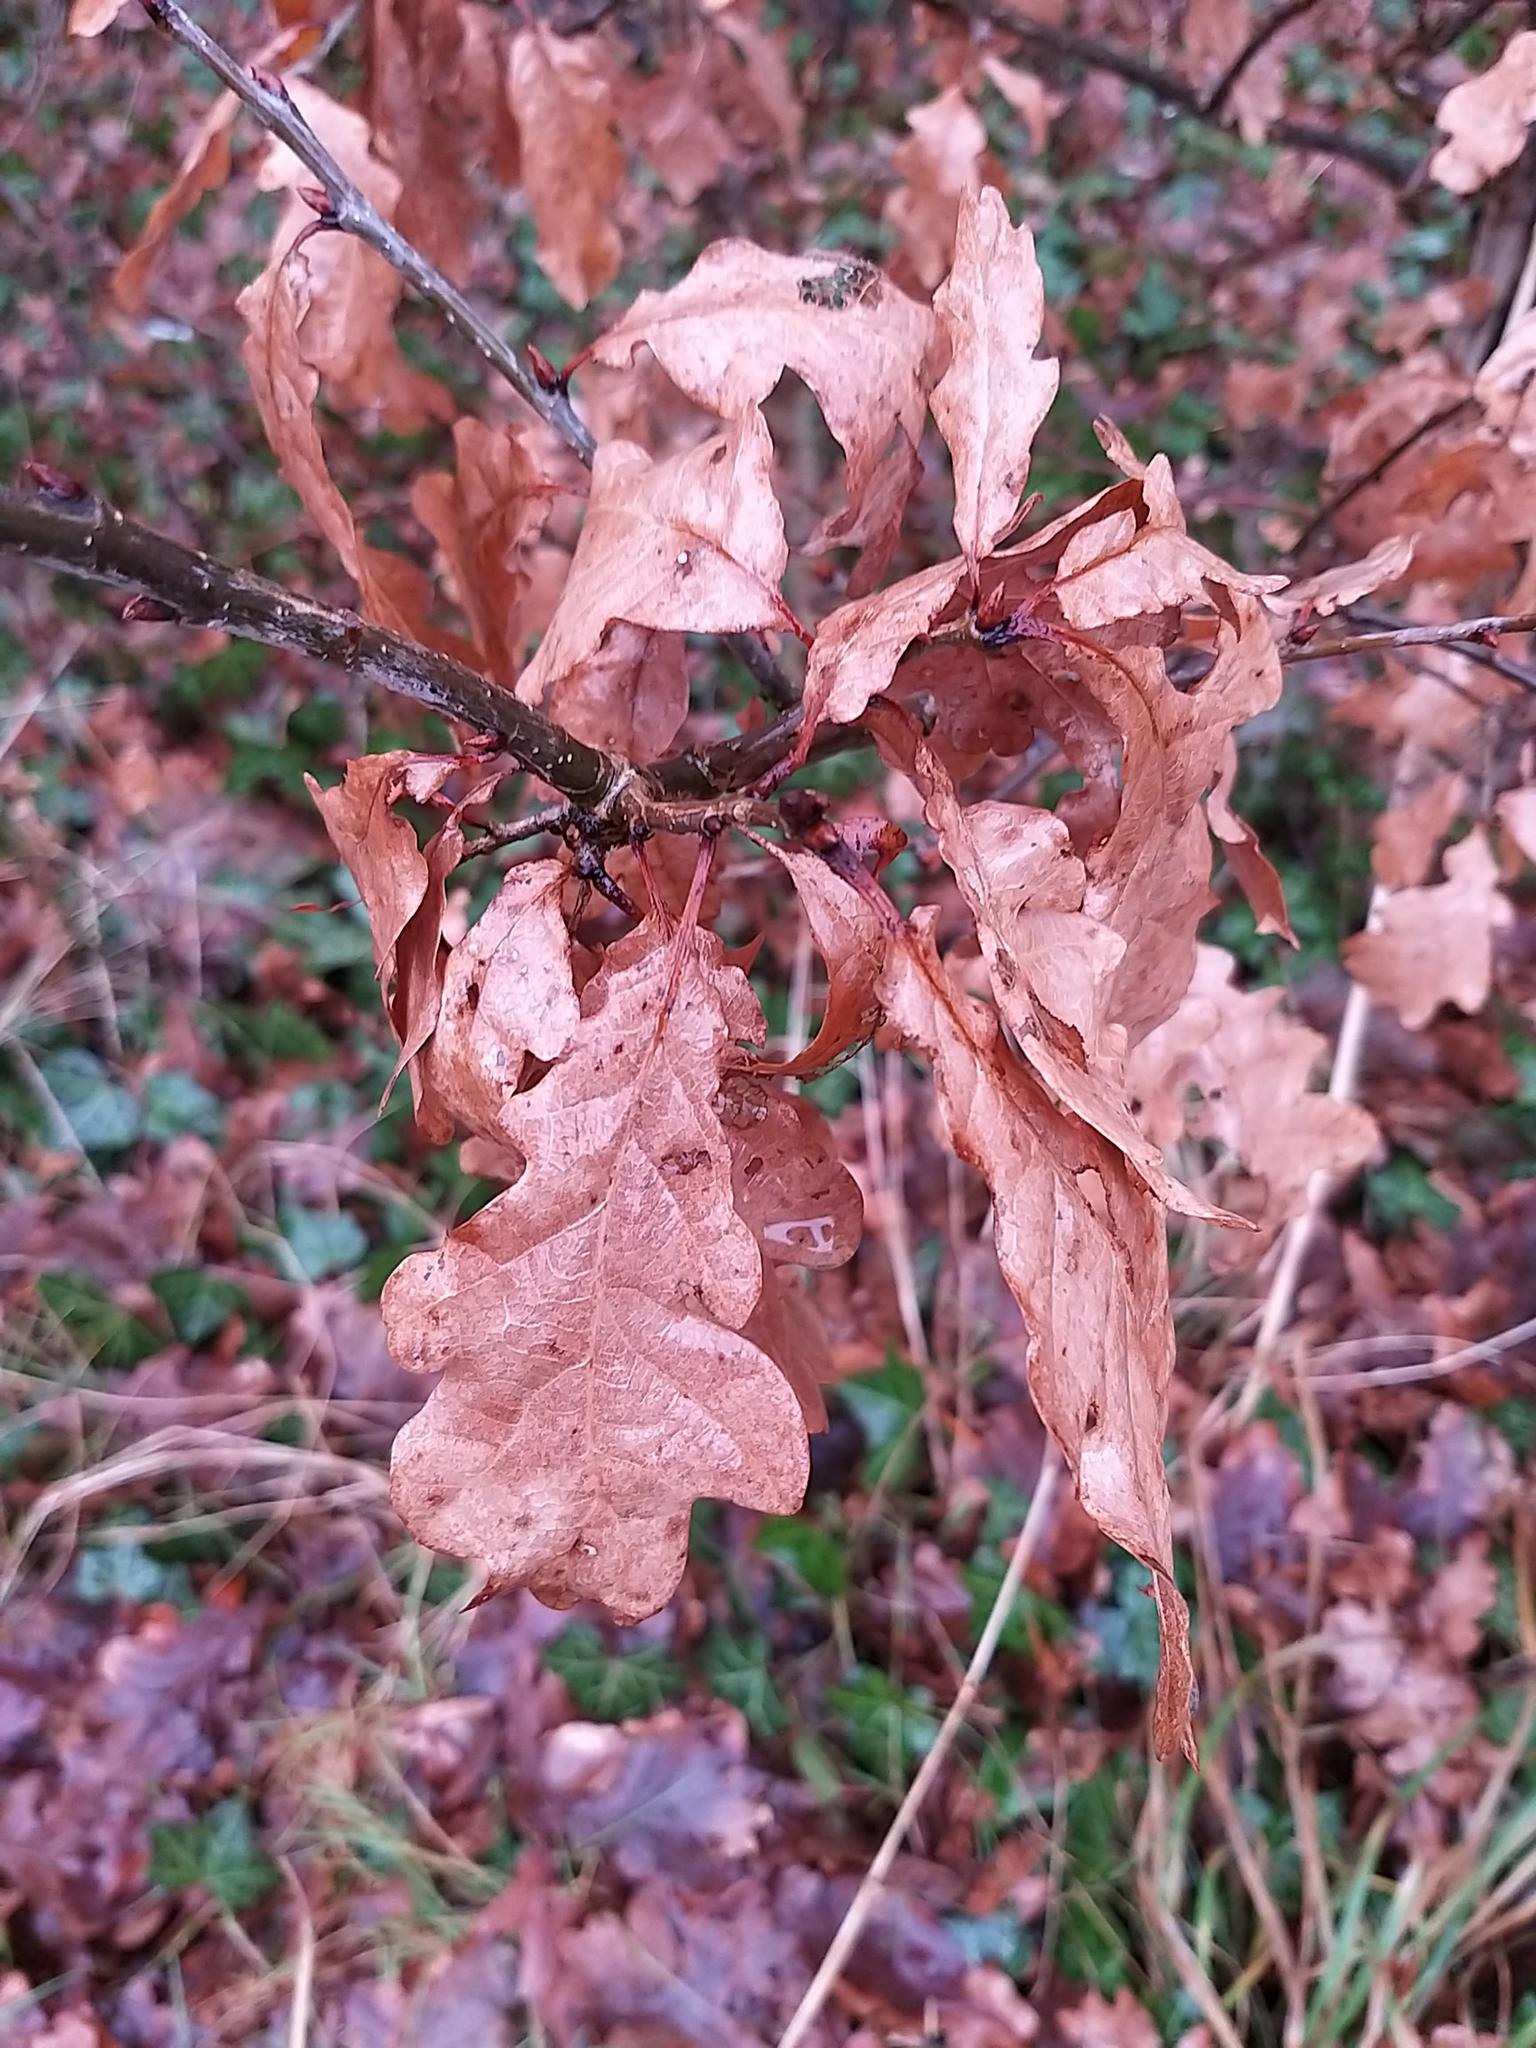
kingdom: Plantae
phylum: Tracheophyta
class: Magnoliopsida
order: Fagales
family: Fagaceae
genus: Quercus
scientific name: Quercus petraea
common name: Sessile oak
